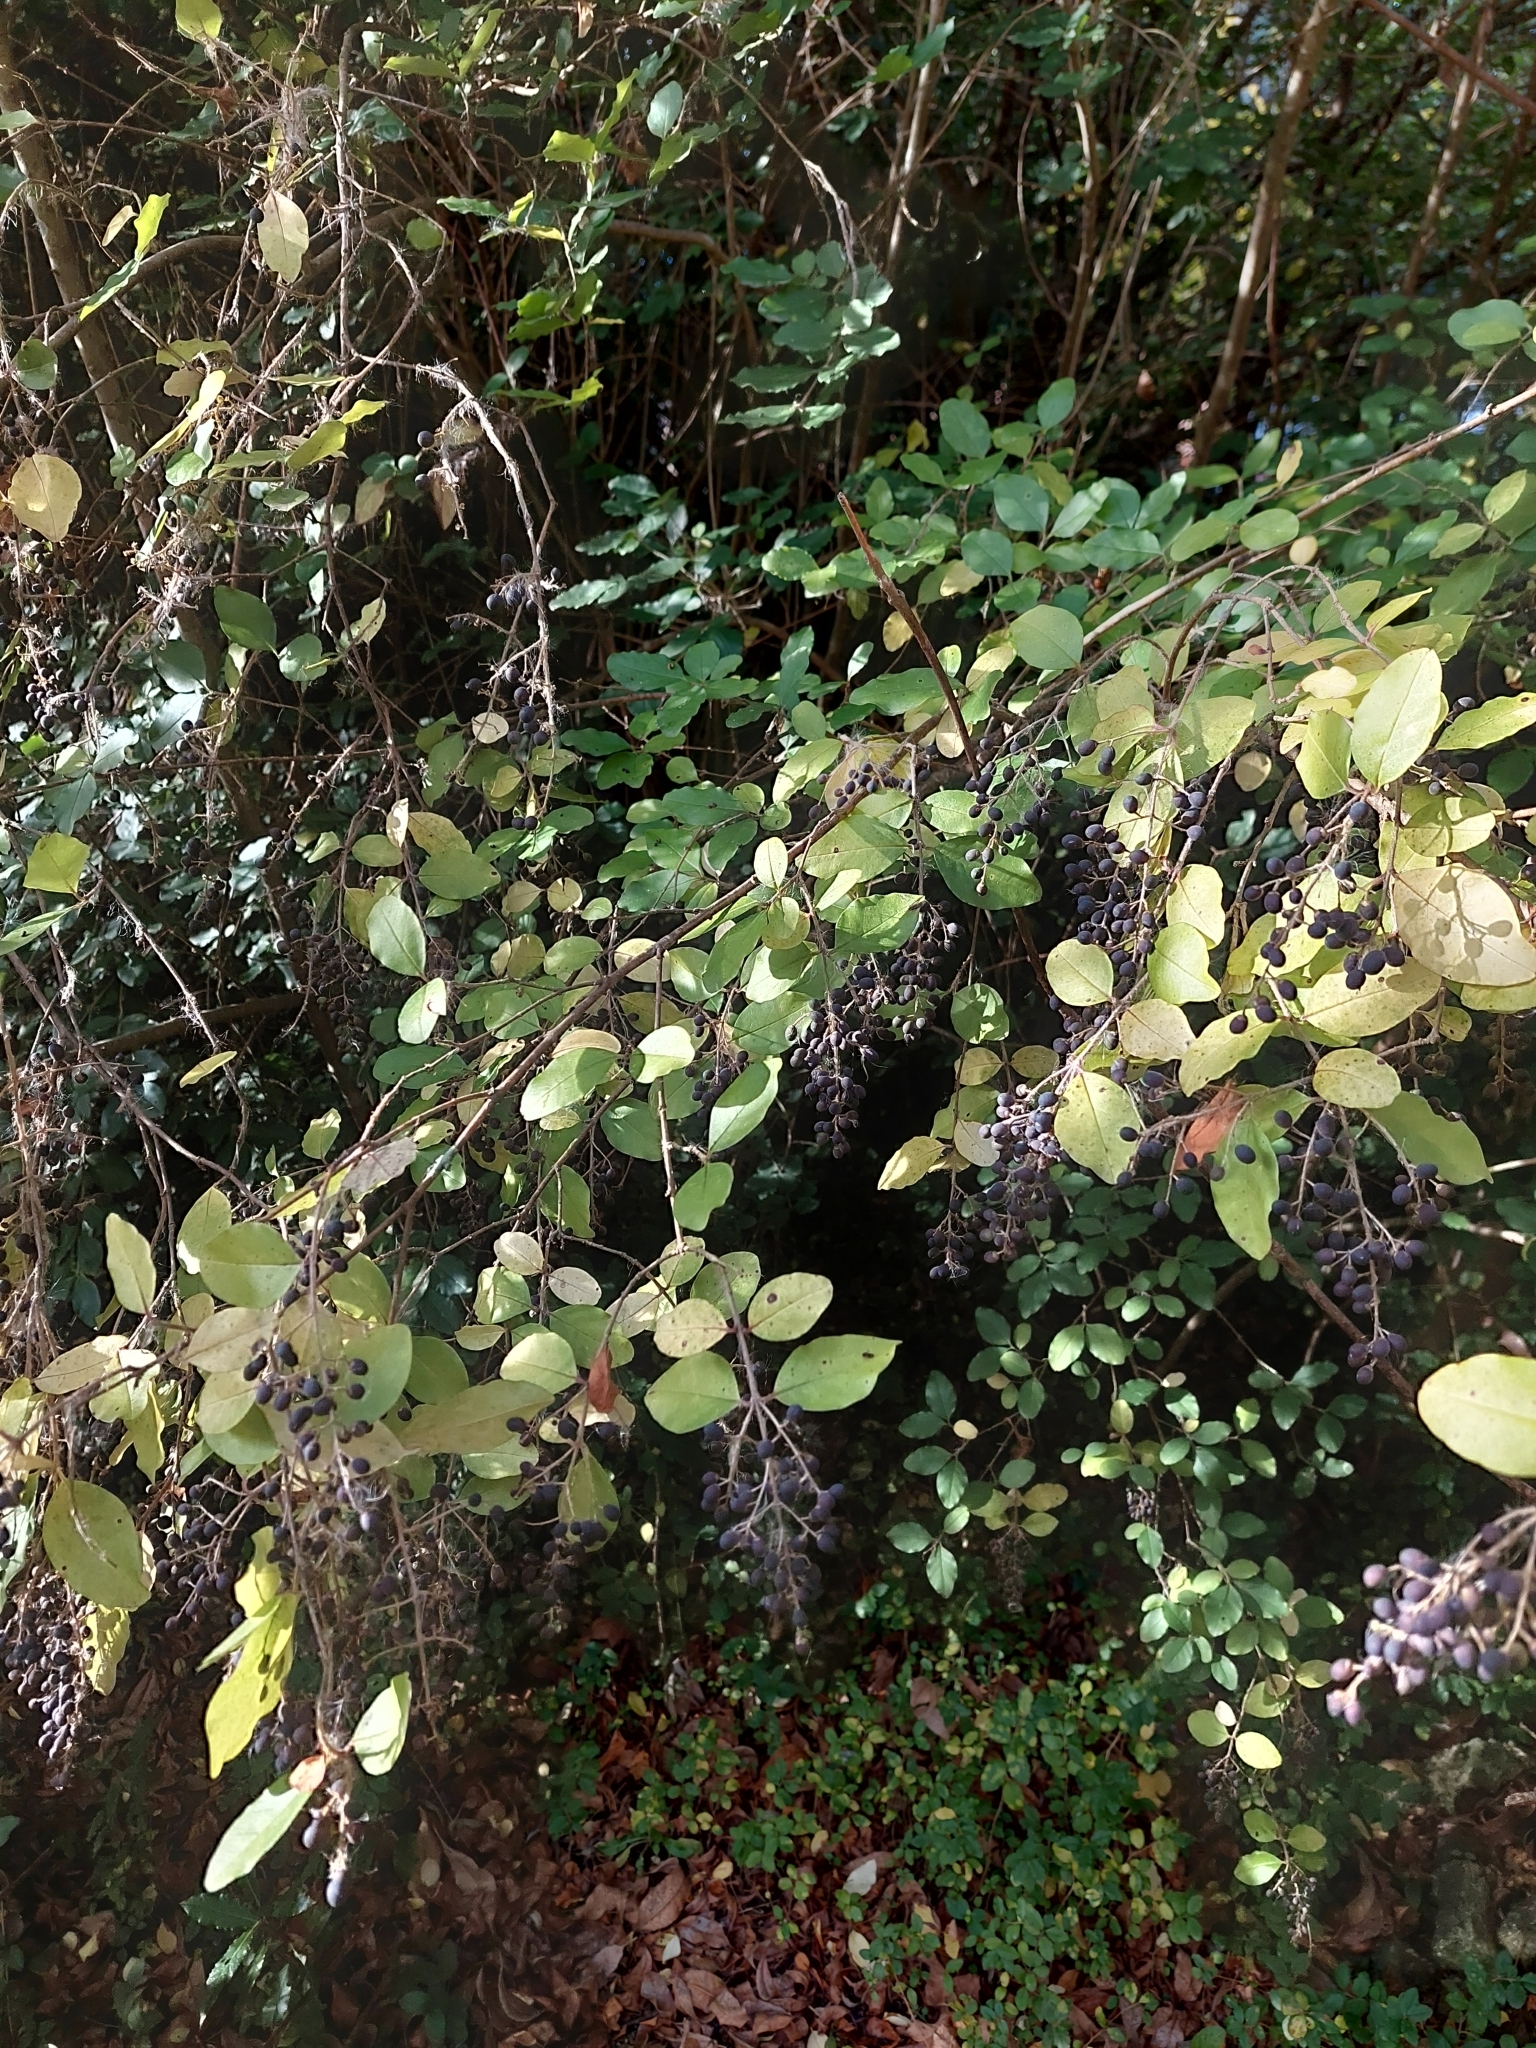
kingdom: Plantae
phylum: Tracheophyta
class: Magnoliopsida
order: Lamiales
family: Oleaceae
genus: Ligustrum
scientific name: Ligustrum sinense
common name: Chinese privet
